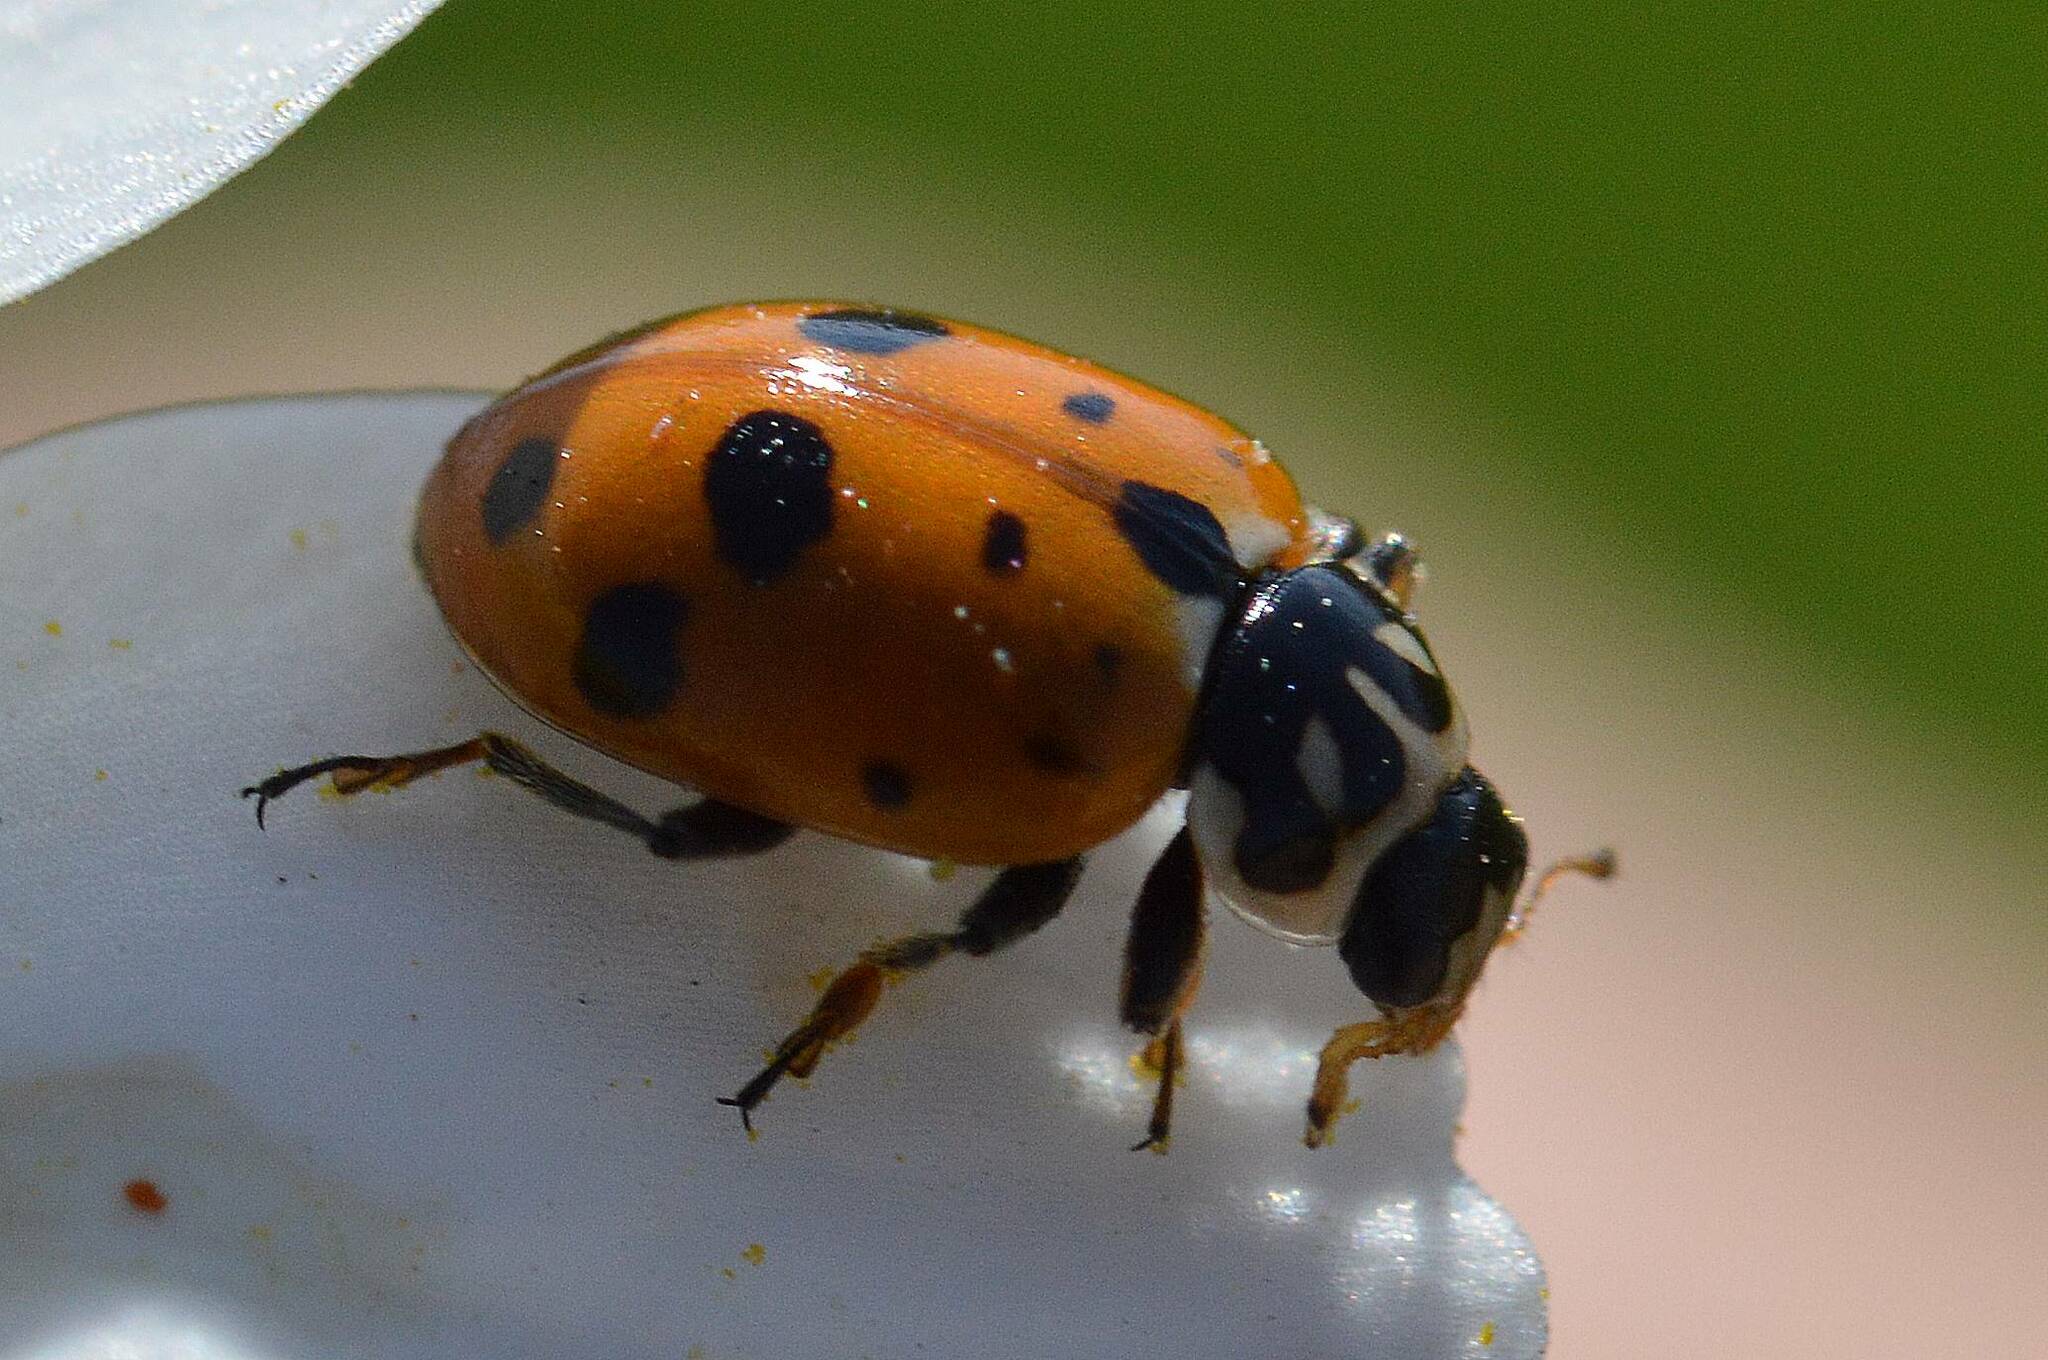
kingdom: Animalia
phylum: Arthropoda
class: Insecta
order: Coleoptera
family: Coccinellidae
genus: Hippodamia
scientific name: Hippodamia variegata
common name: Ladybird beetle
